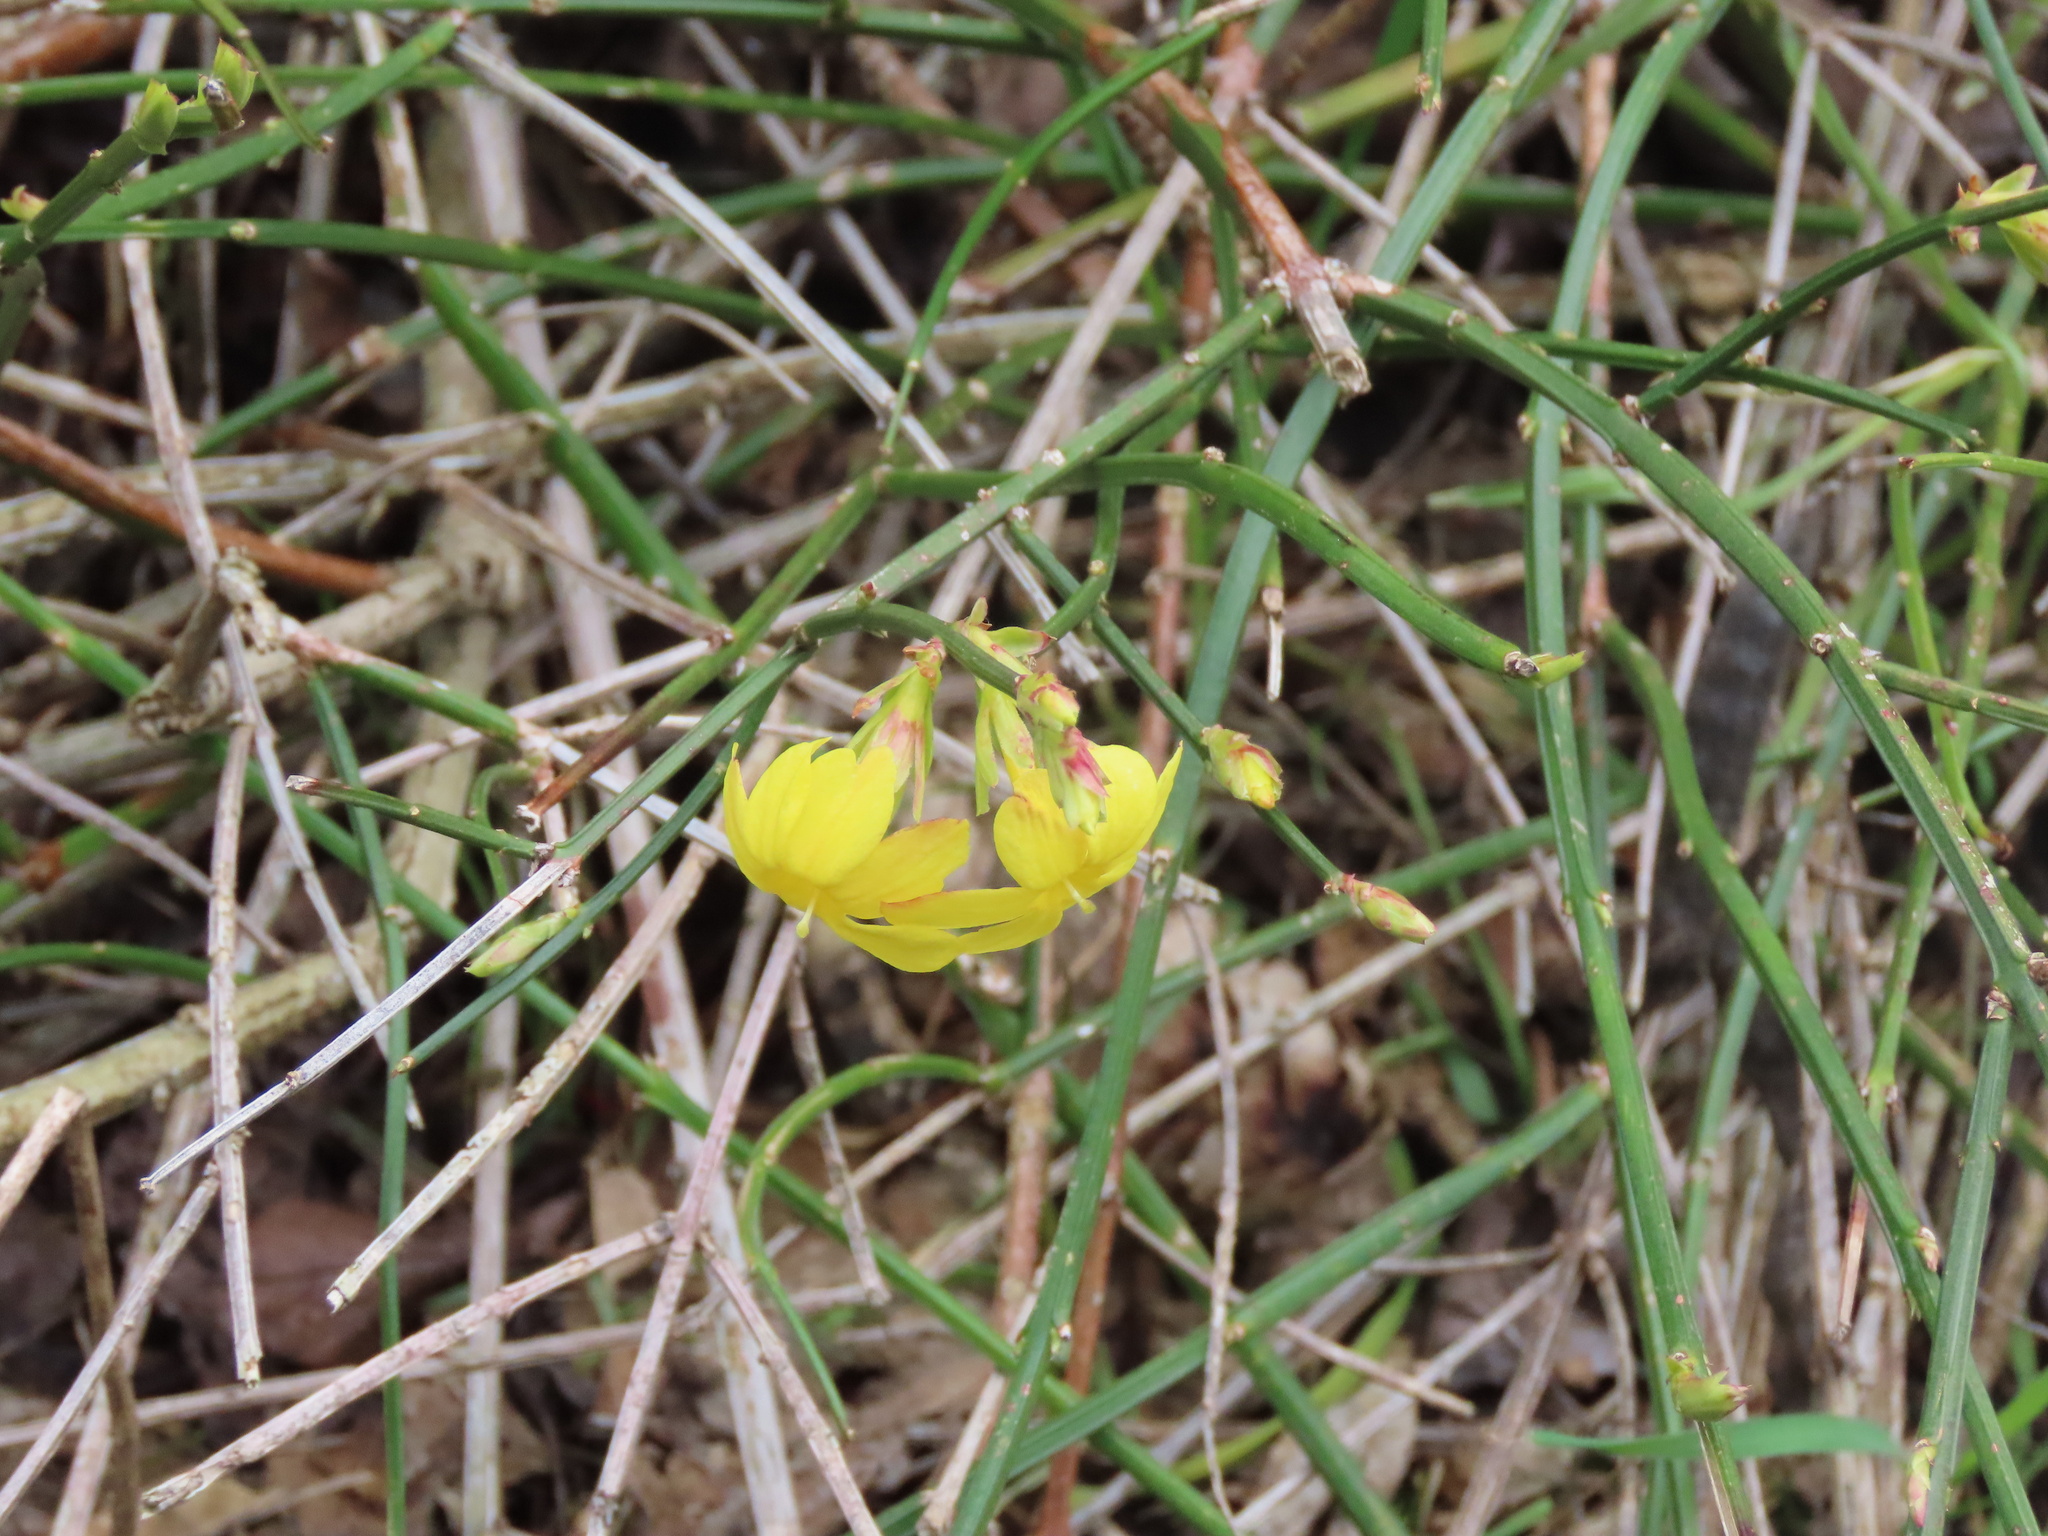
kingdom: Plantae
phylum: Tracheophyta
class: Magnoliopsida
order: Lamiales
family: Oleaceae
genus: Jasminum
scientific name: Jasminum nudiflorum
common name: Winter jasmine
